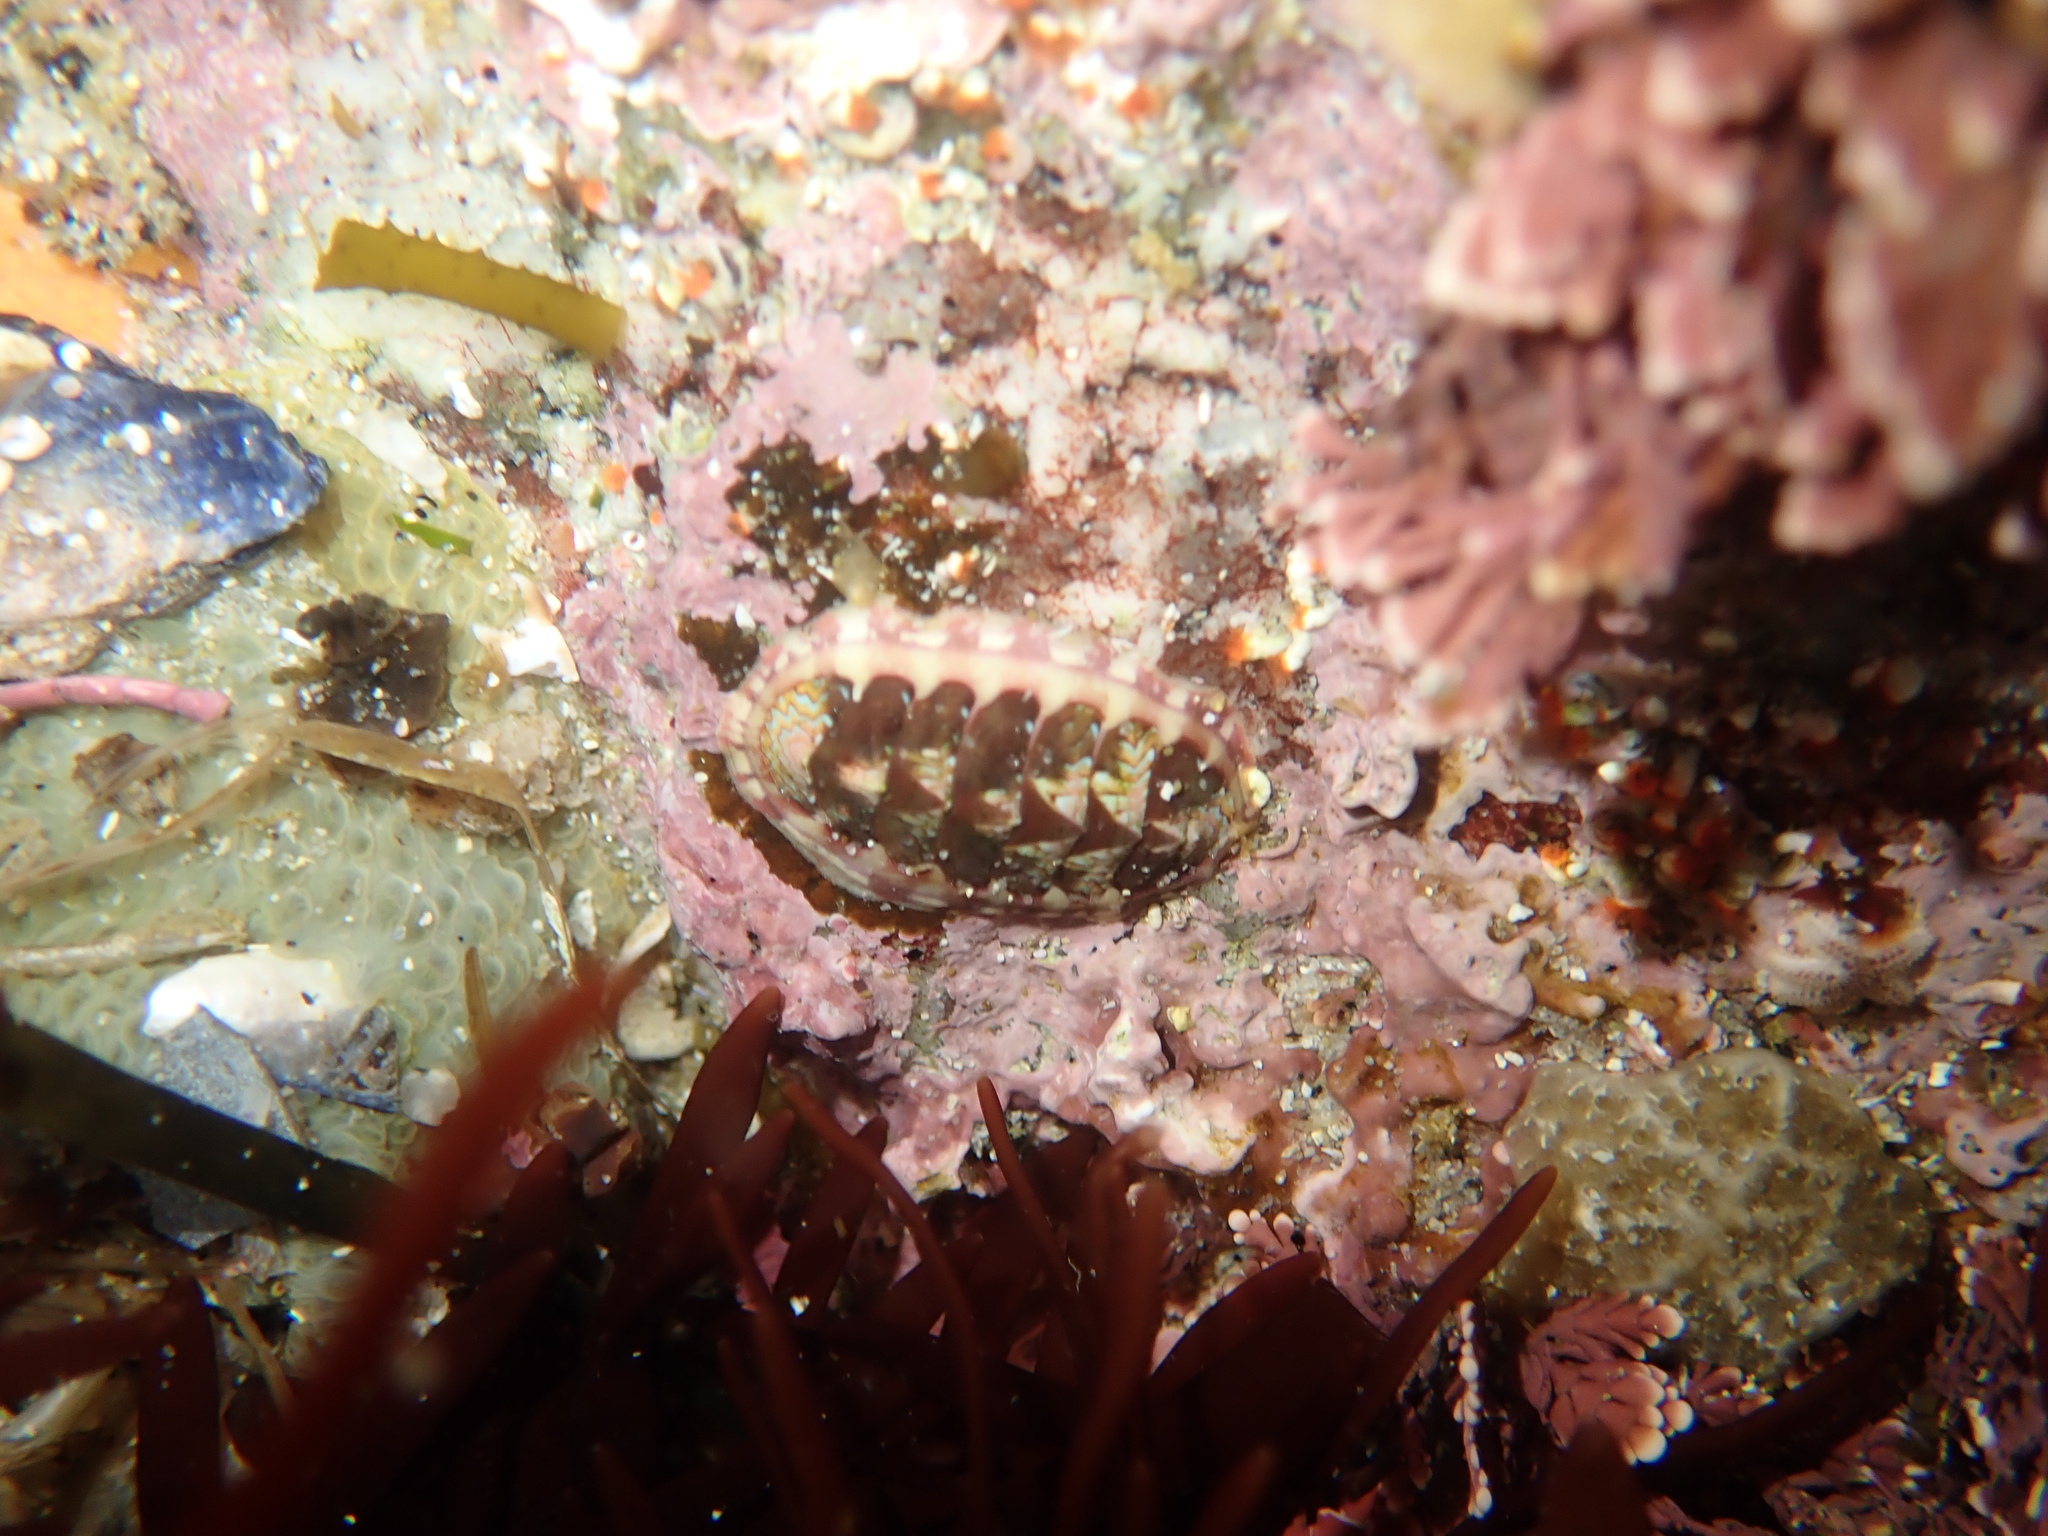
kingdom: Animalia
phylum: Mollusca
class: Polyplacophora
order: Chitonida
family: Tonicellidae
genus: Tonicella
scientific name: Tonicella lokii
